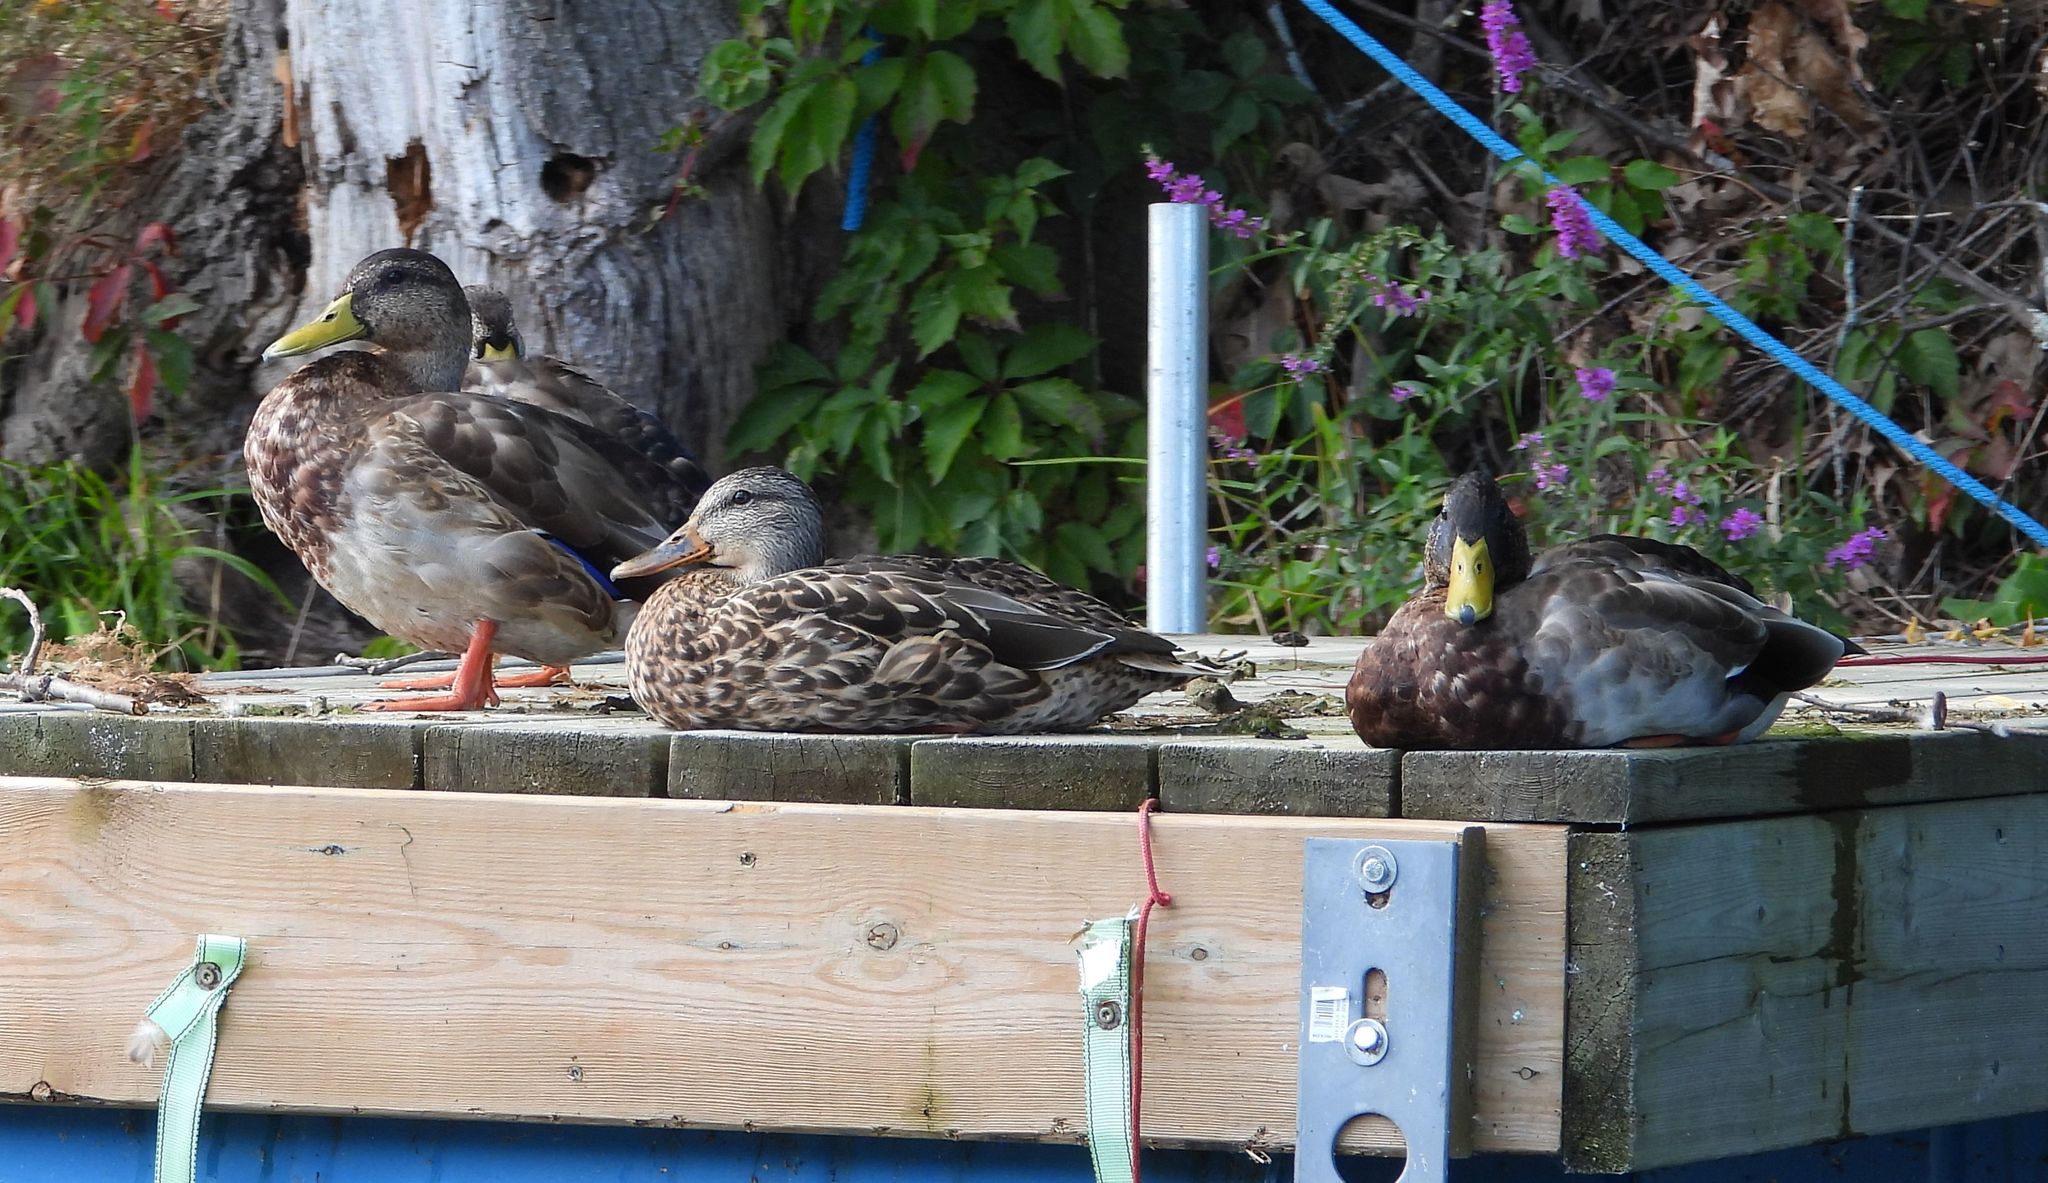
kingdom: Animalia
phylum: Chordata
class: Aves
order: Anseriformes
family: Anatidae
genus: Anas
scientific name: Anas platyrhynchos
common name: Mallard
